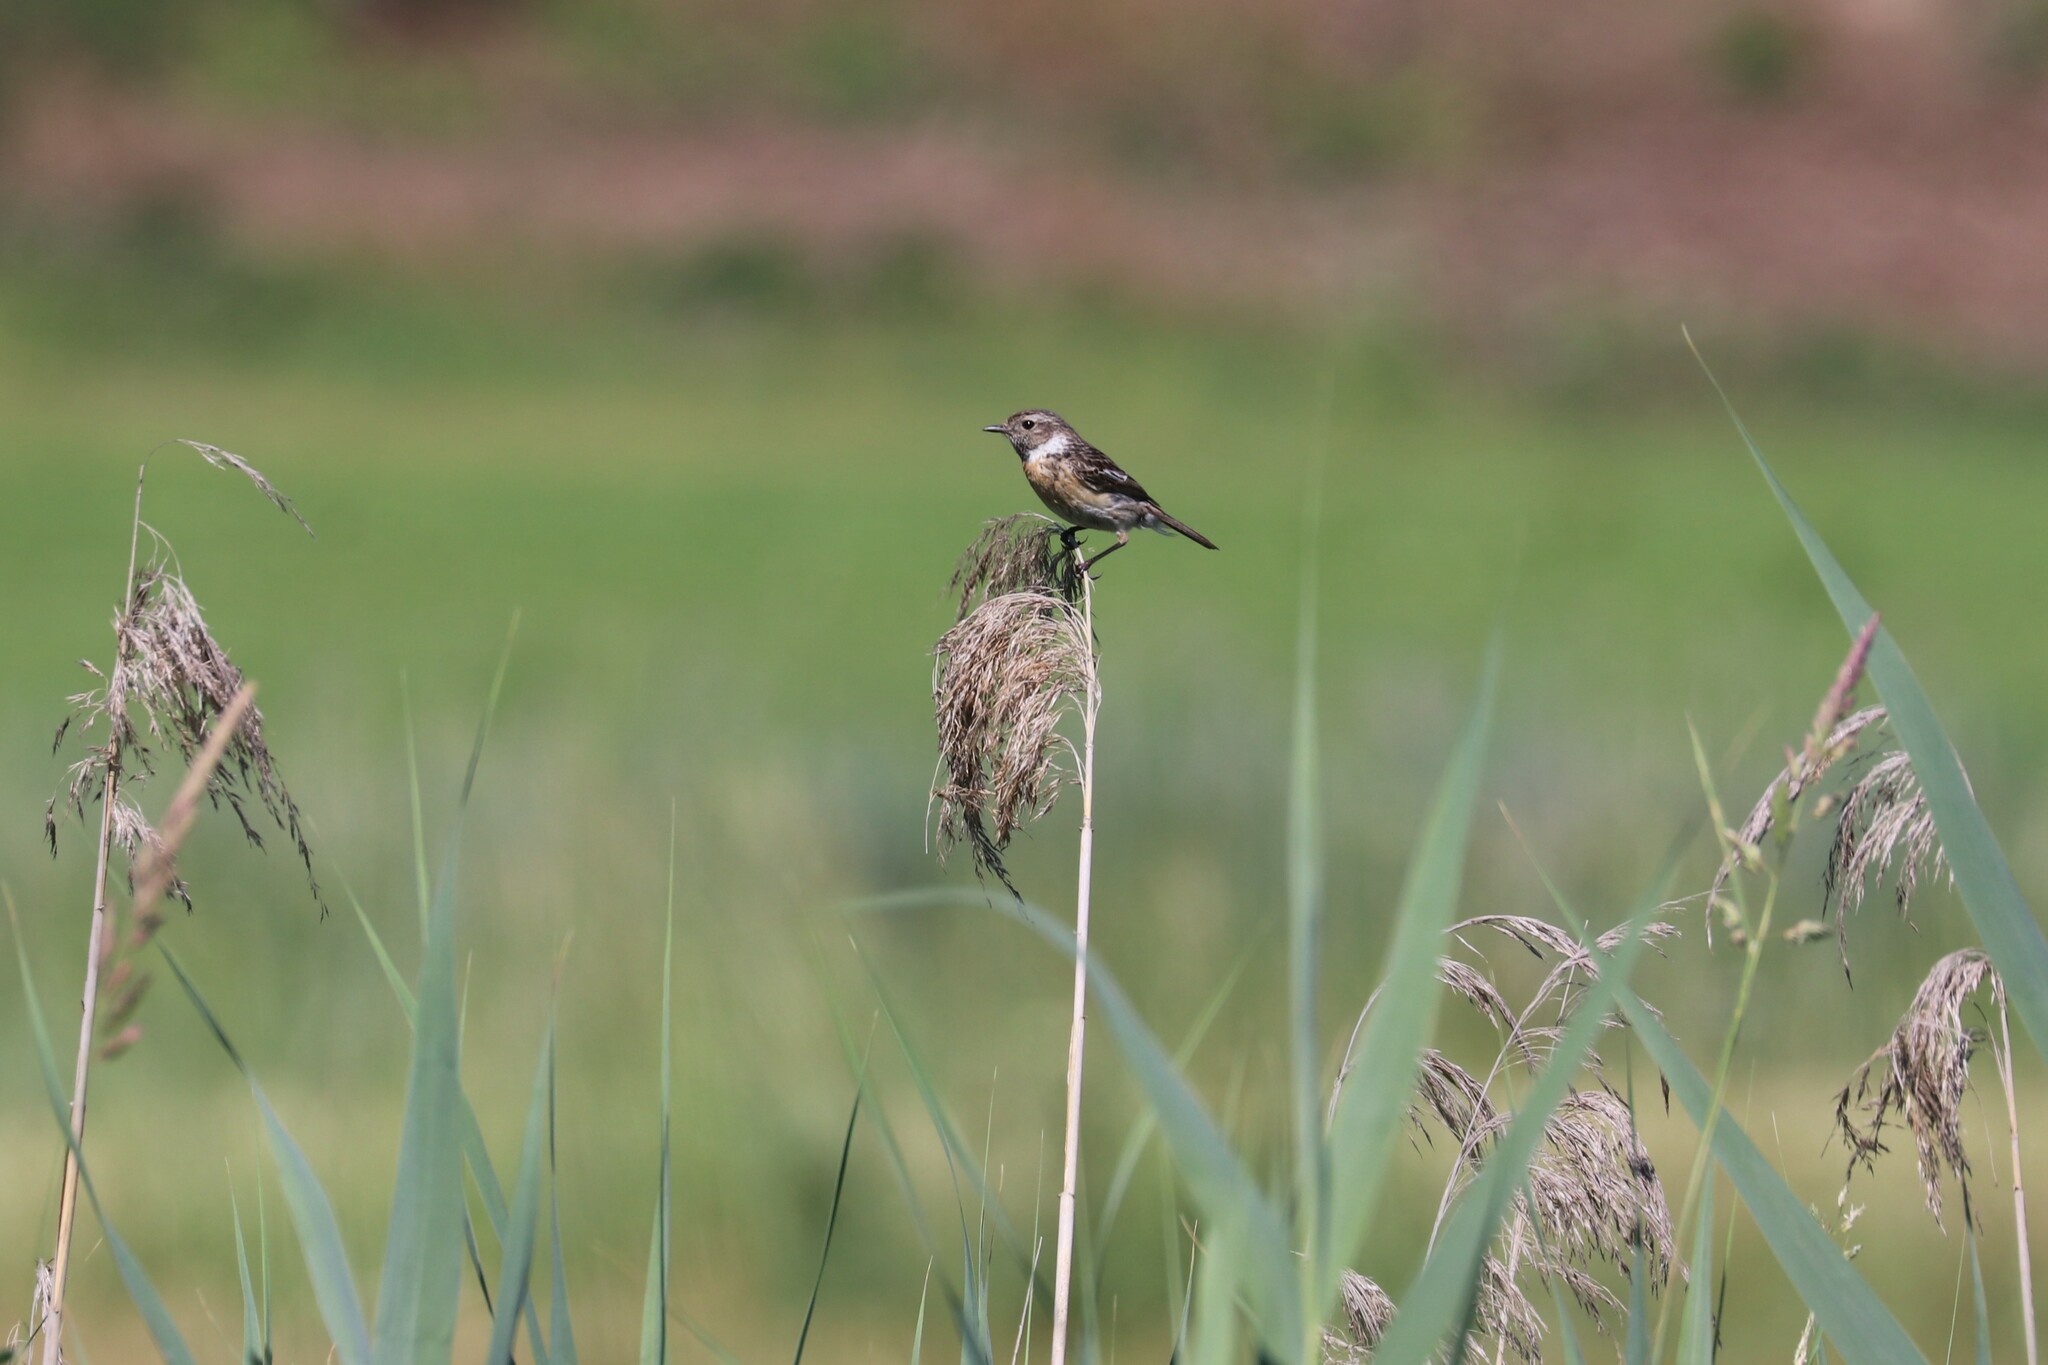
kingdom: Animalia
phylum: Chordata
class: Aves
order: Passeriformes
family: Muscicapidae
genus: Saxicola
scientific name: Saxicola rubicola
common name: European stonechat
